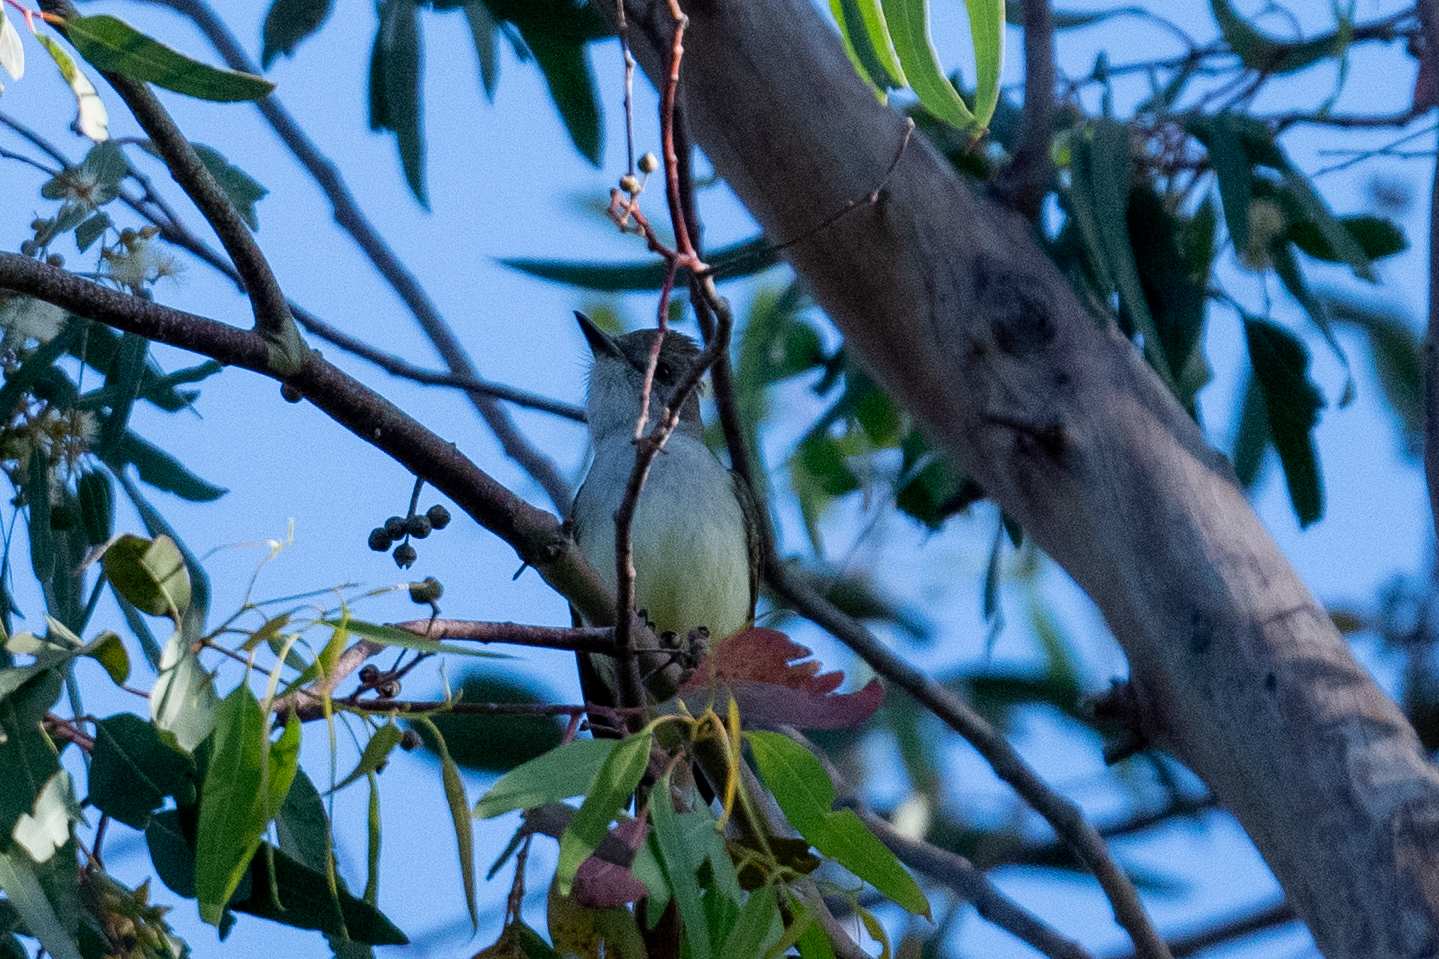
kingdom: Animalia
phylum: Chordata
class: Aves
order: Passeriformes
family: Tyrannidae
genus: Myiarchus
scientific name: Myiarchus cinerascens
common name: Ash-throated flycatcher
